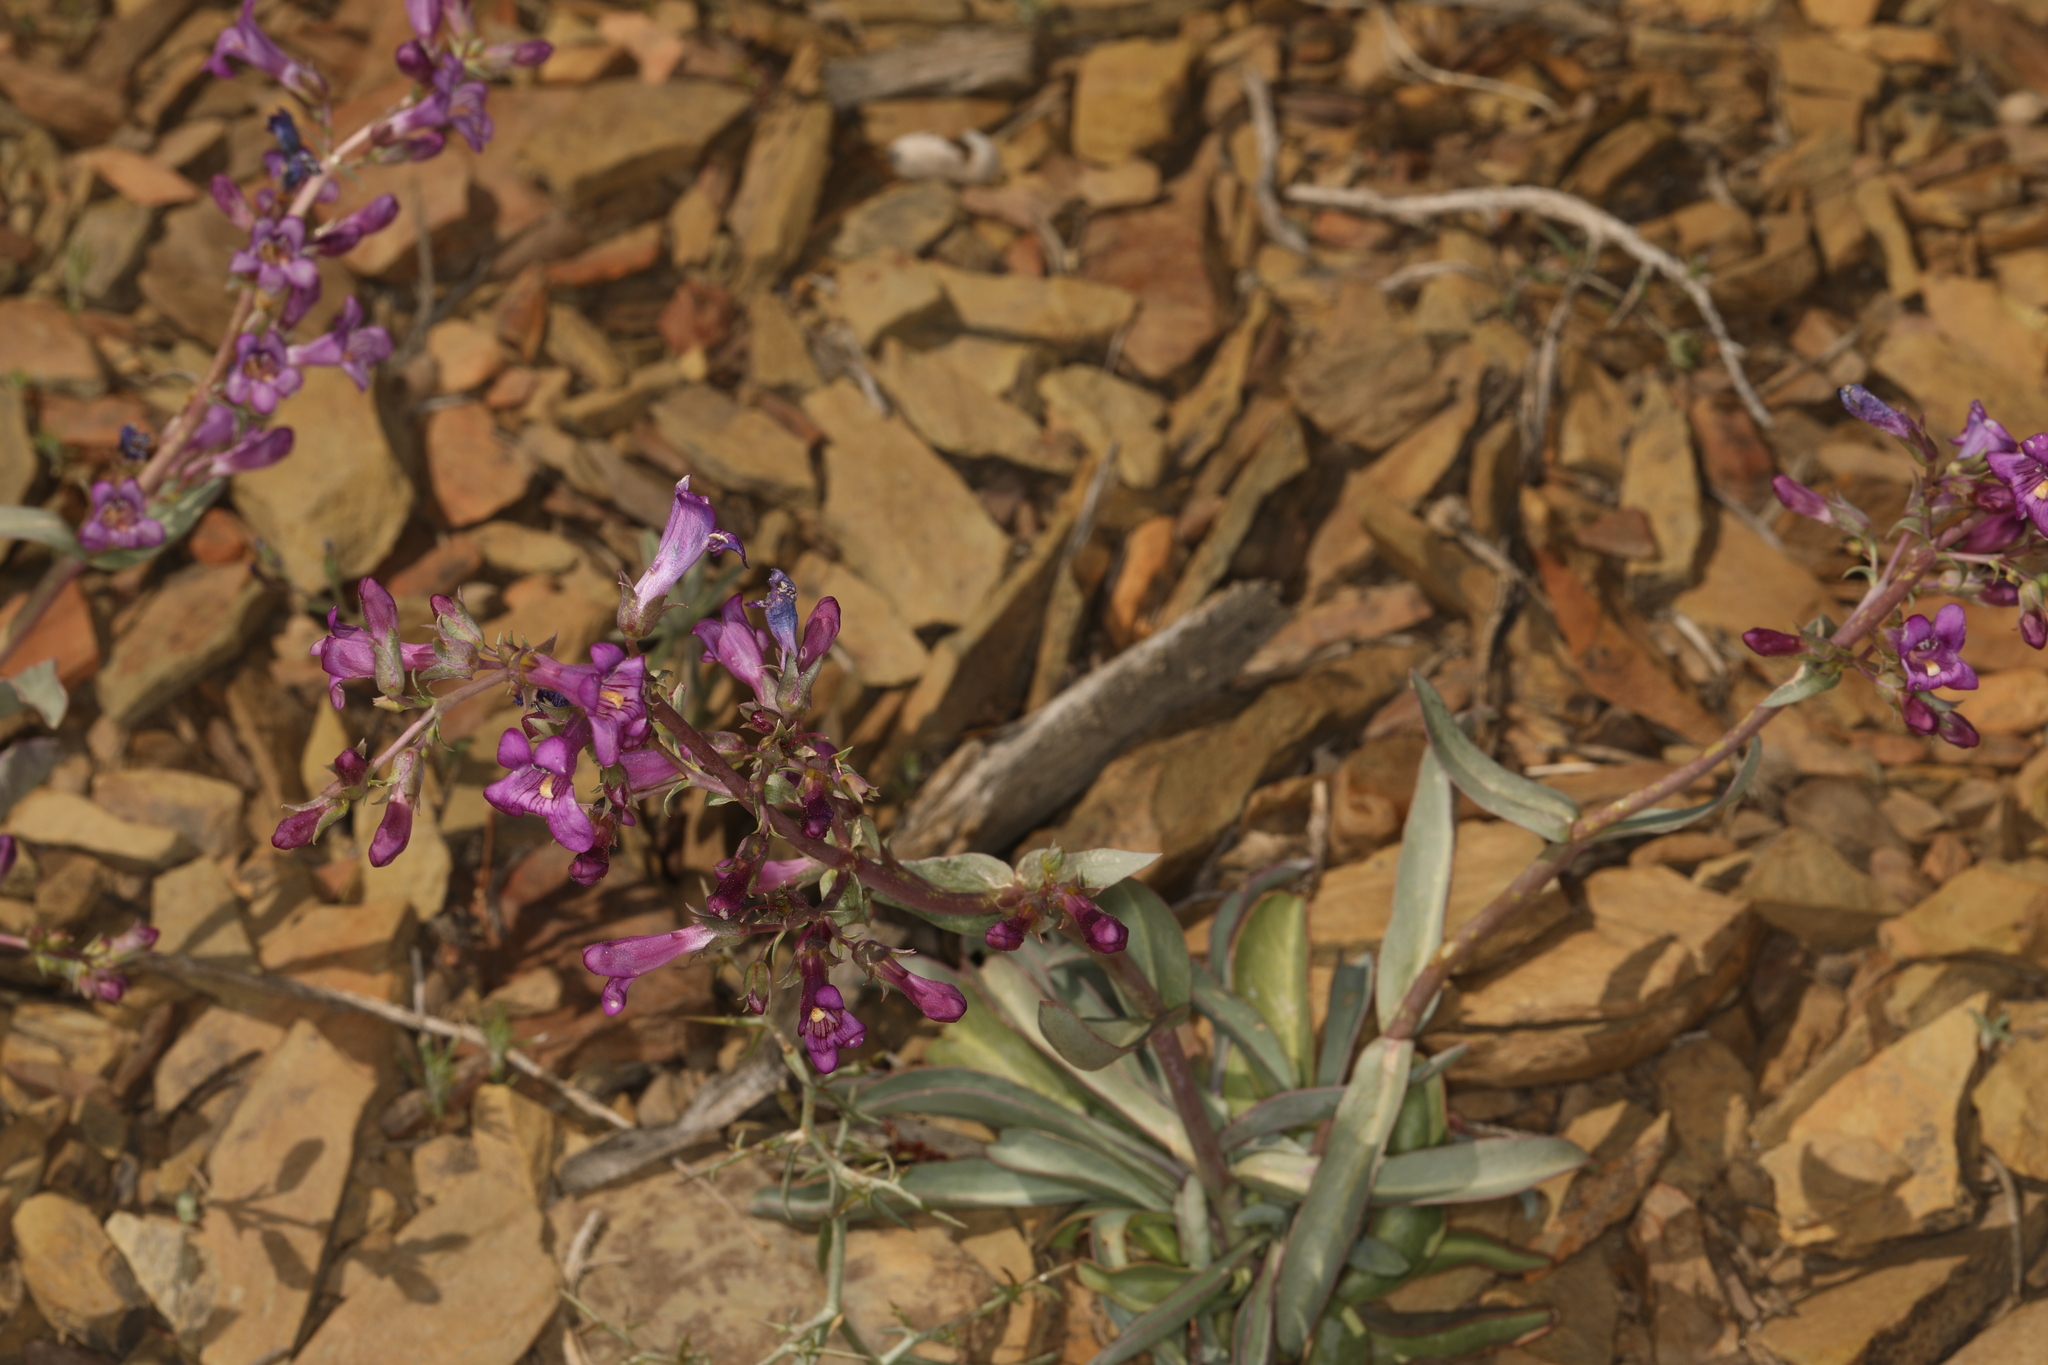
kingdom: Plantae
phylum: Tracheophyta
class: Magnoliopsida
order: Lamiales
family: Plantaginaceae
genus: Penstemon
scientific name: Penstemon patens
